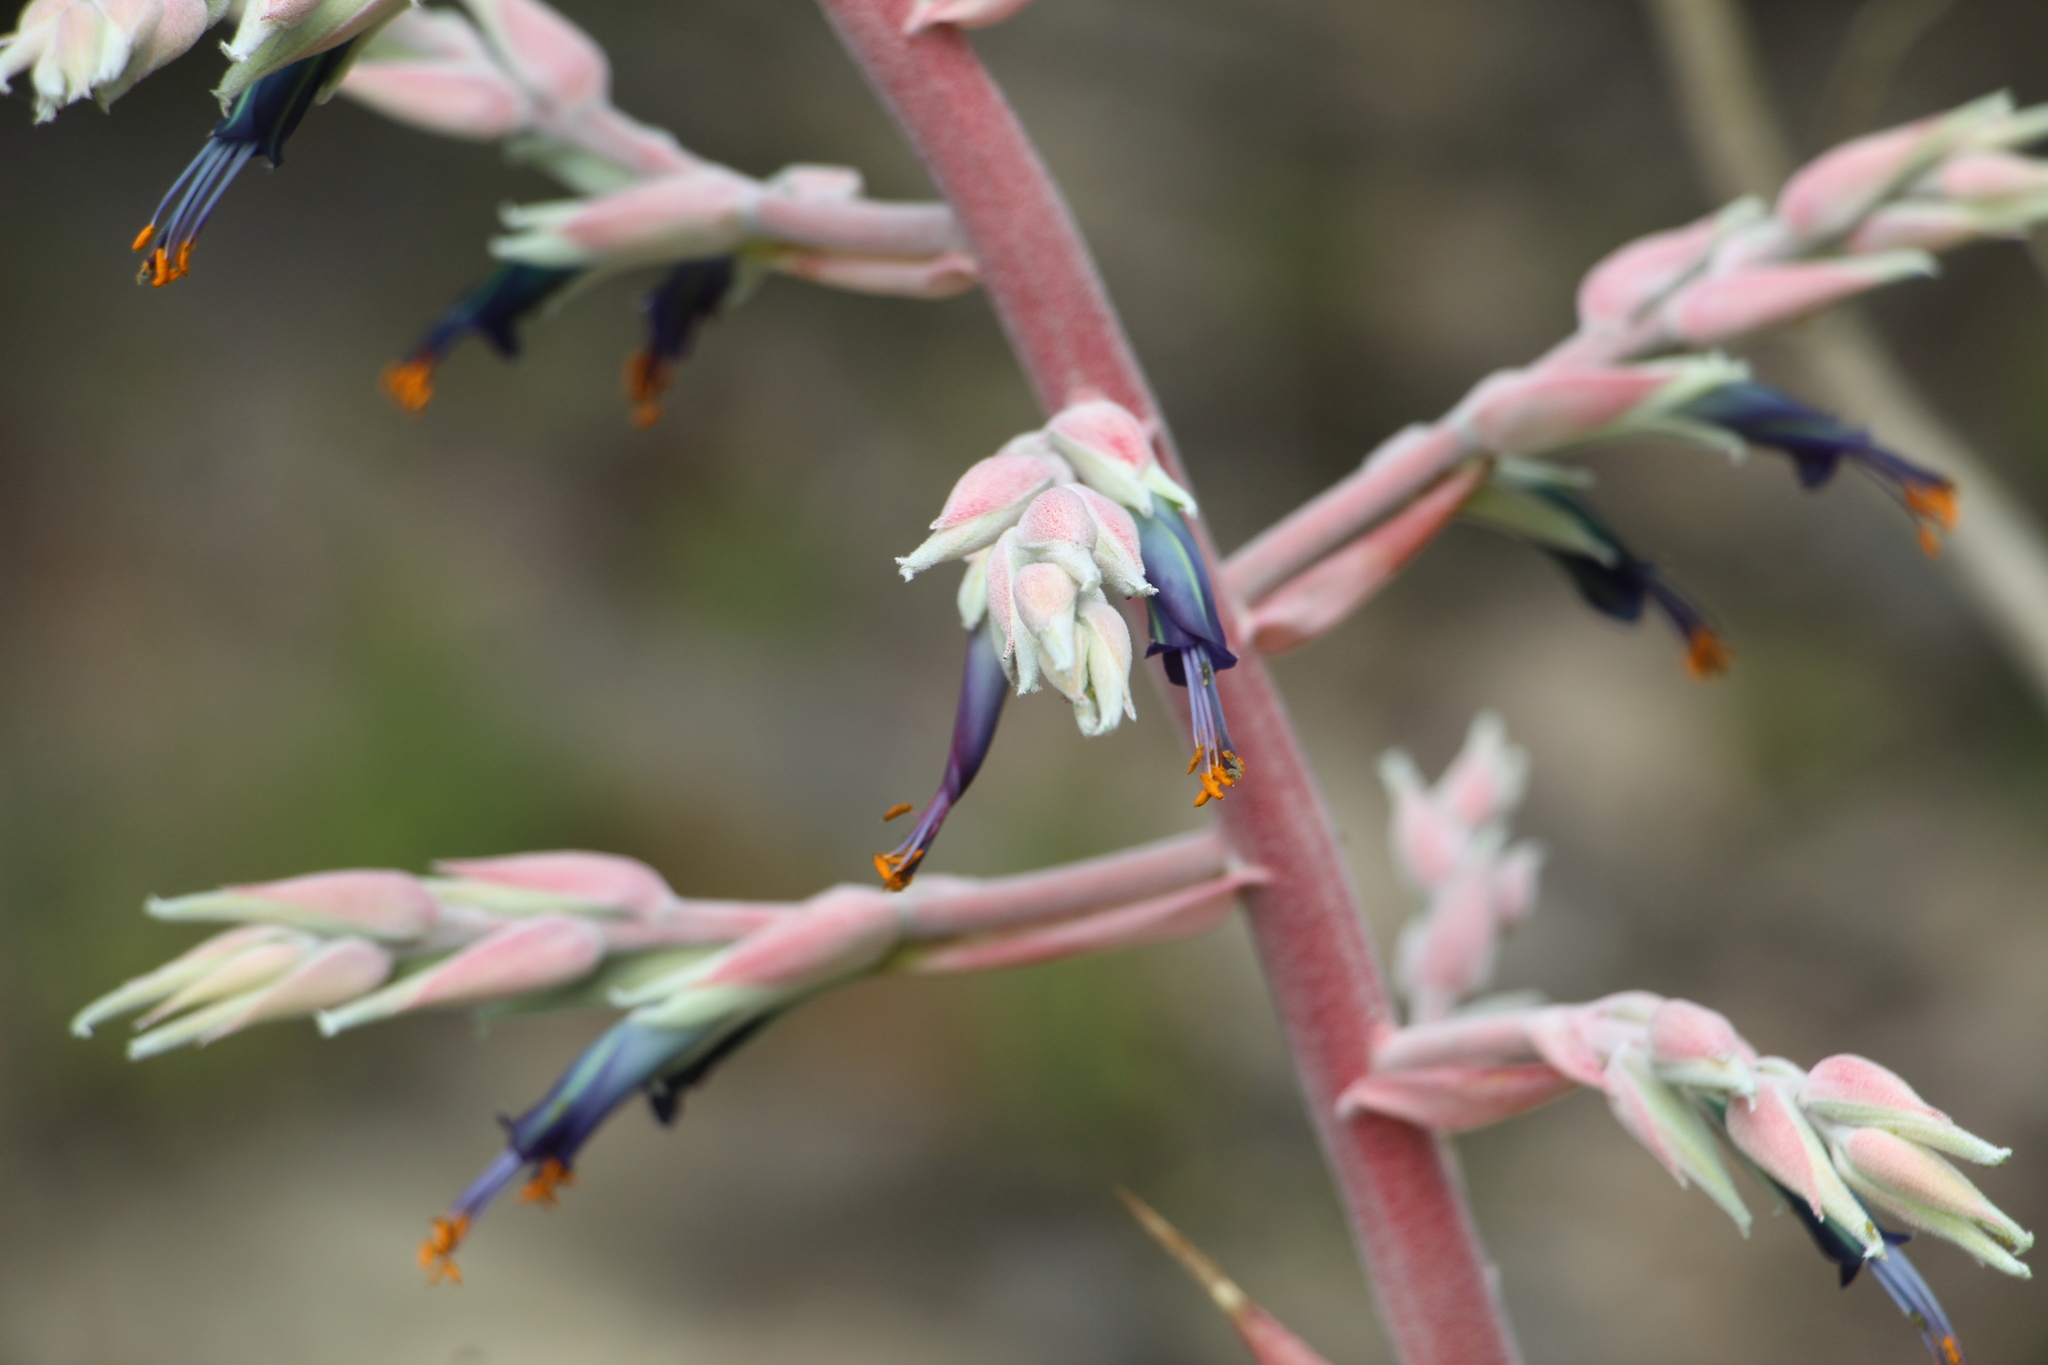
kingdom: Plantae
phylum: Tracheophyta
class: Liliopsida
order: Poales
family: Bromeliaceae
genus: Puya
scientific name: Puya floccosa
